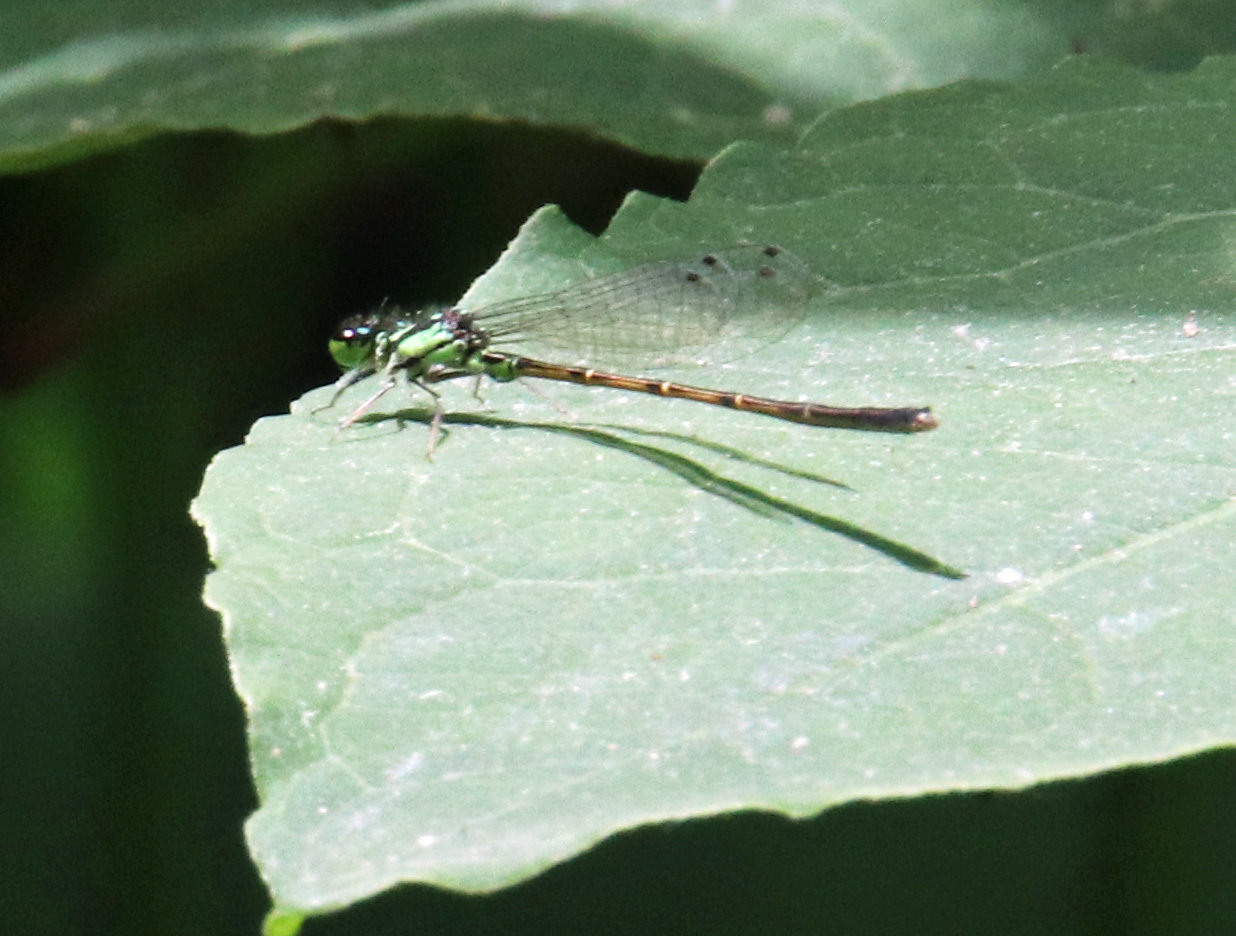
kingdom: Animalia
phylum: Arthropoda
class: Insecta
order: Odonata
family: Coenagrionidae
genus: Ischnura
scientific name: Ischnura posita
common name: Fragile forktail
